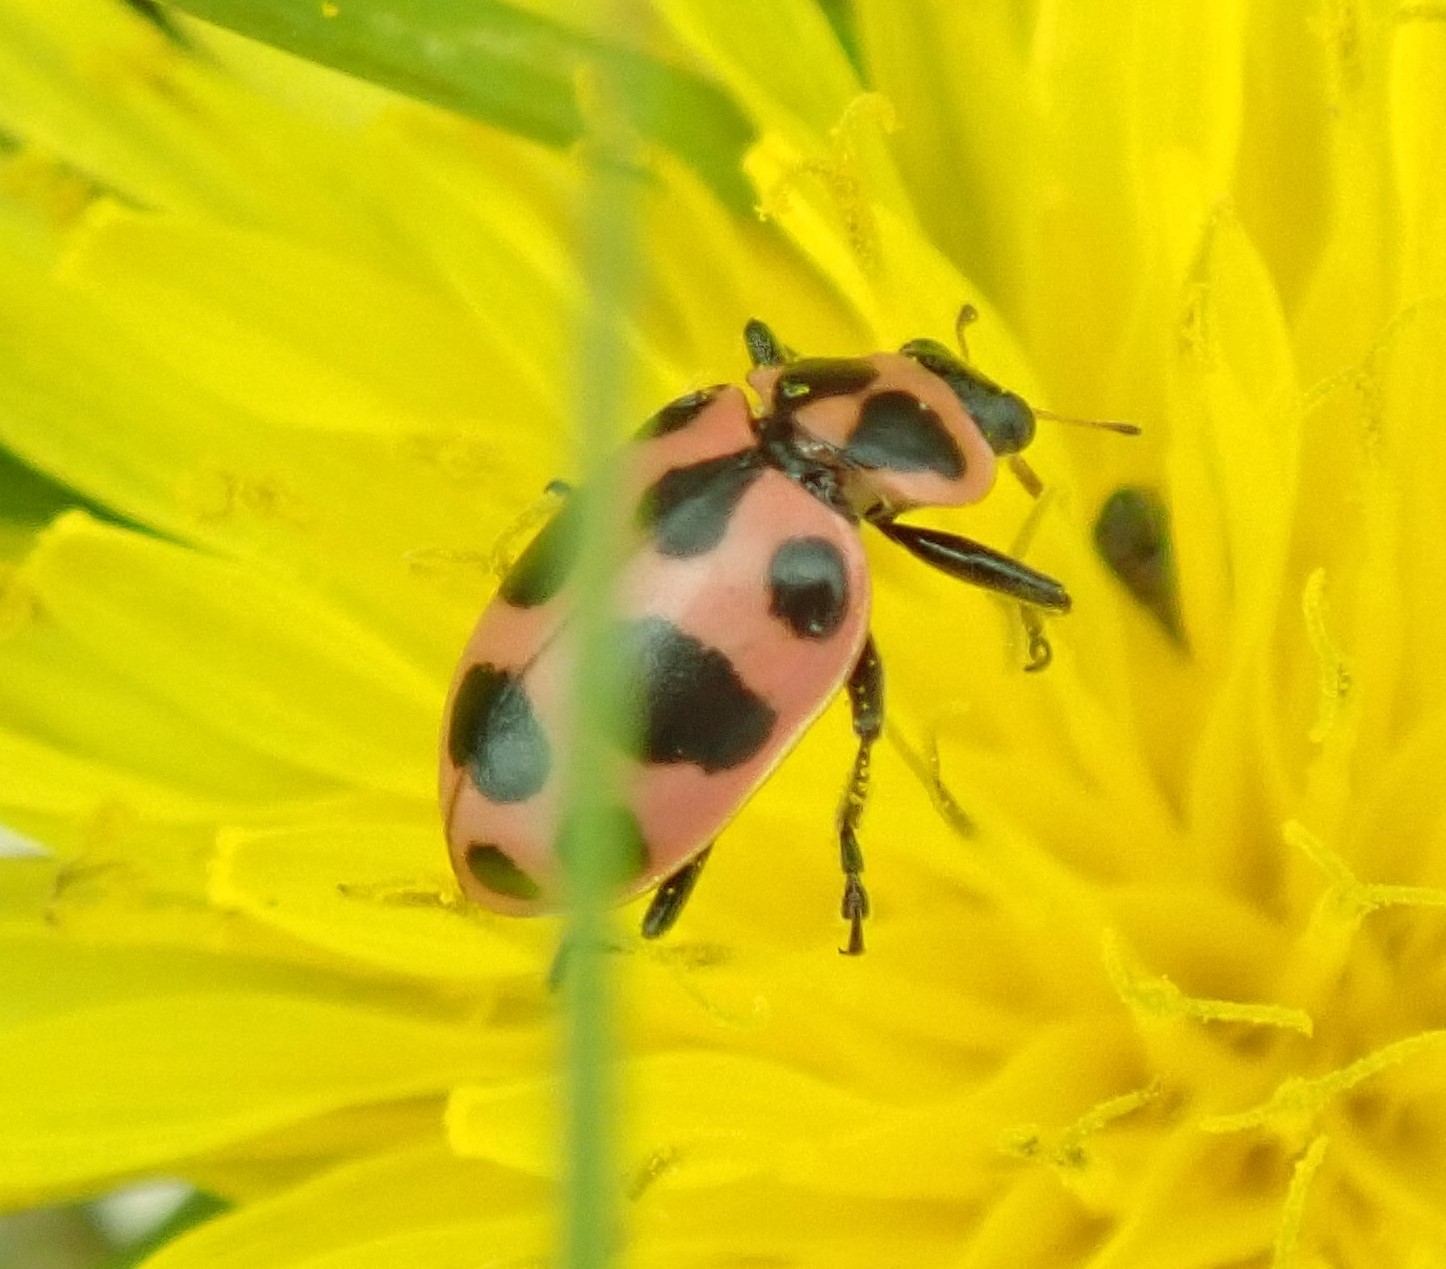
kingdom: Animalia
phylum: Arthropoda
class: Insecta
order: Coleoptera
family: Coccinellidae
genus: Coleomegilla
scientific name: Coleomegilla maculata
